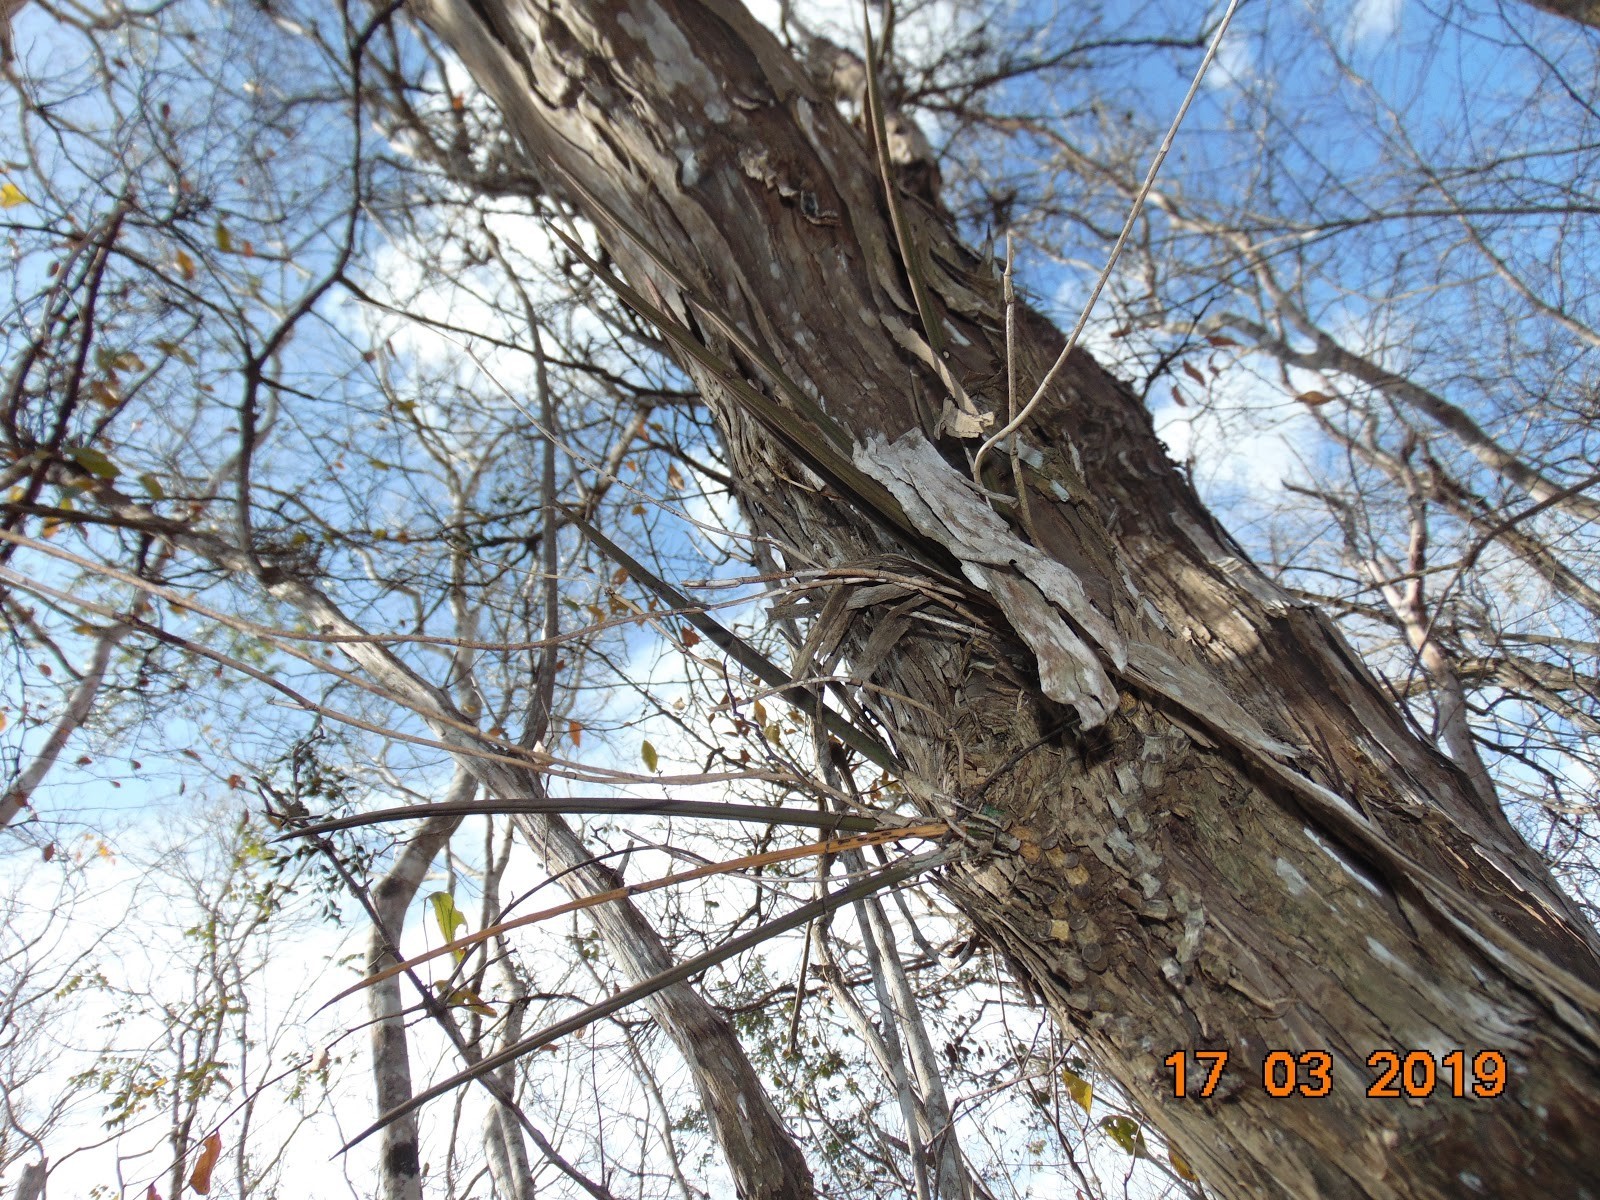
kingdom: Plantae
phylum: Tracheophyta
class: Liliopsida
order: Asparagales
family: Orchidaceae
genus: Trichocentrum
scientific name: Trichocentrum cebolleta
